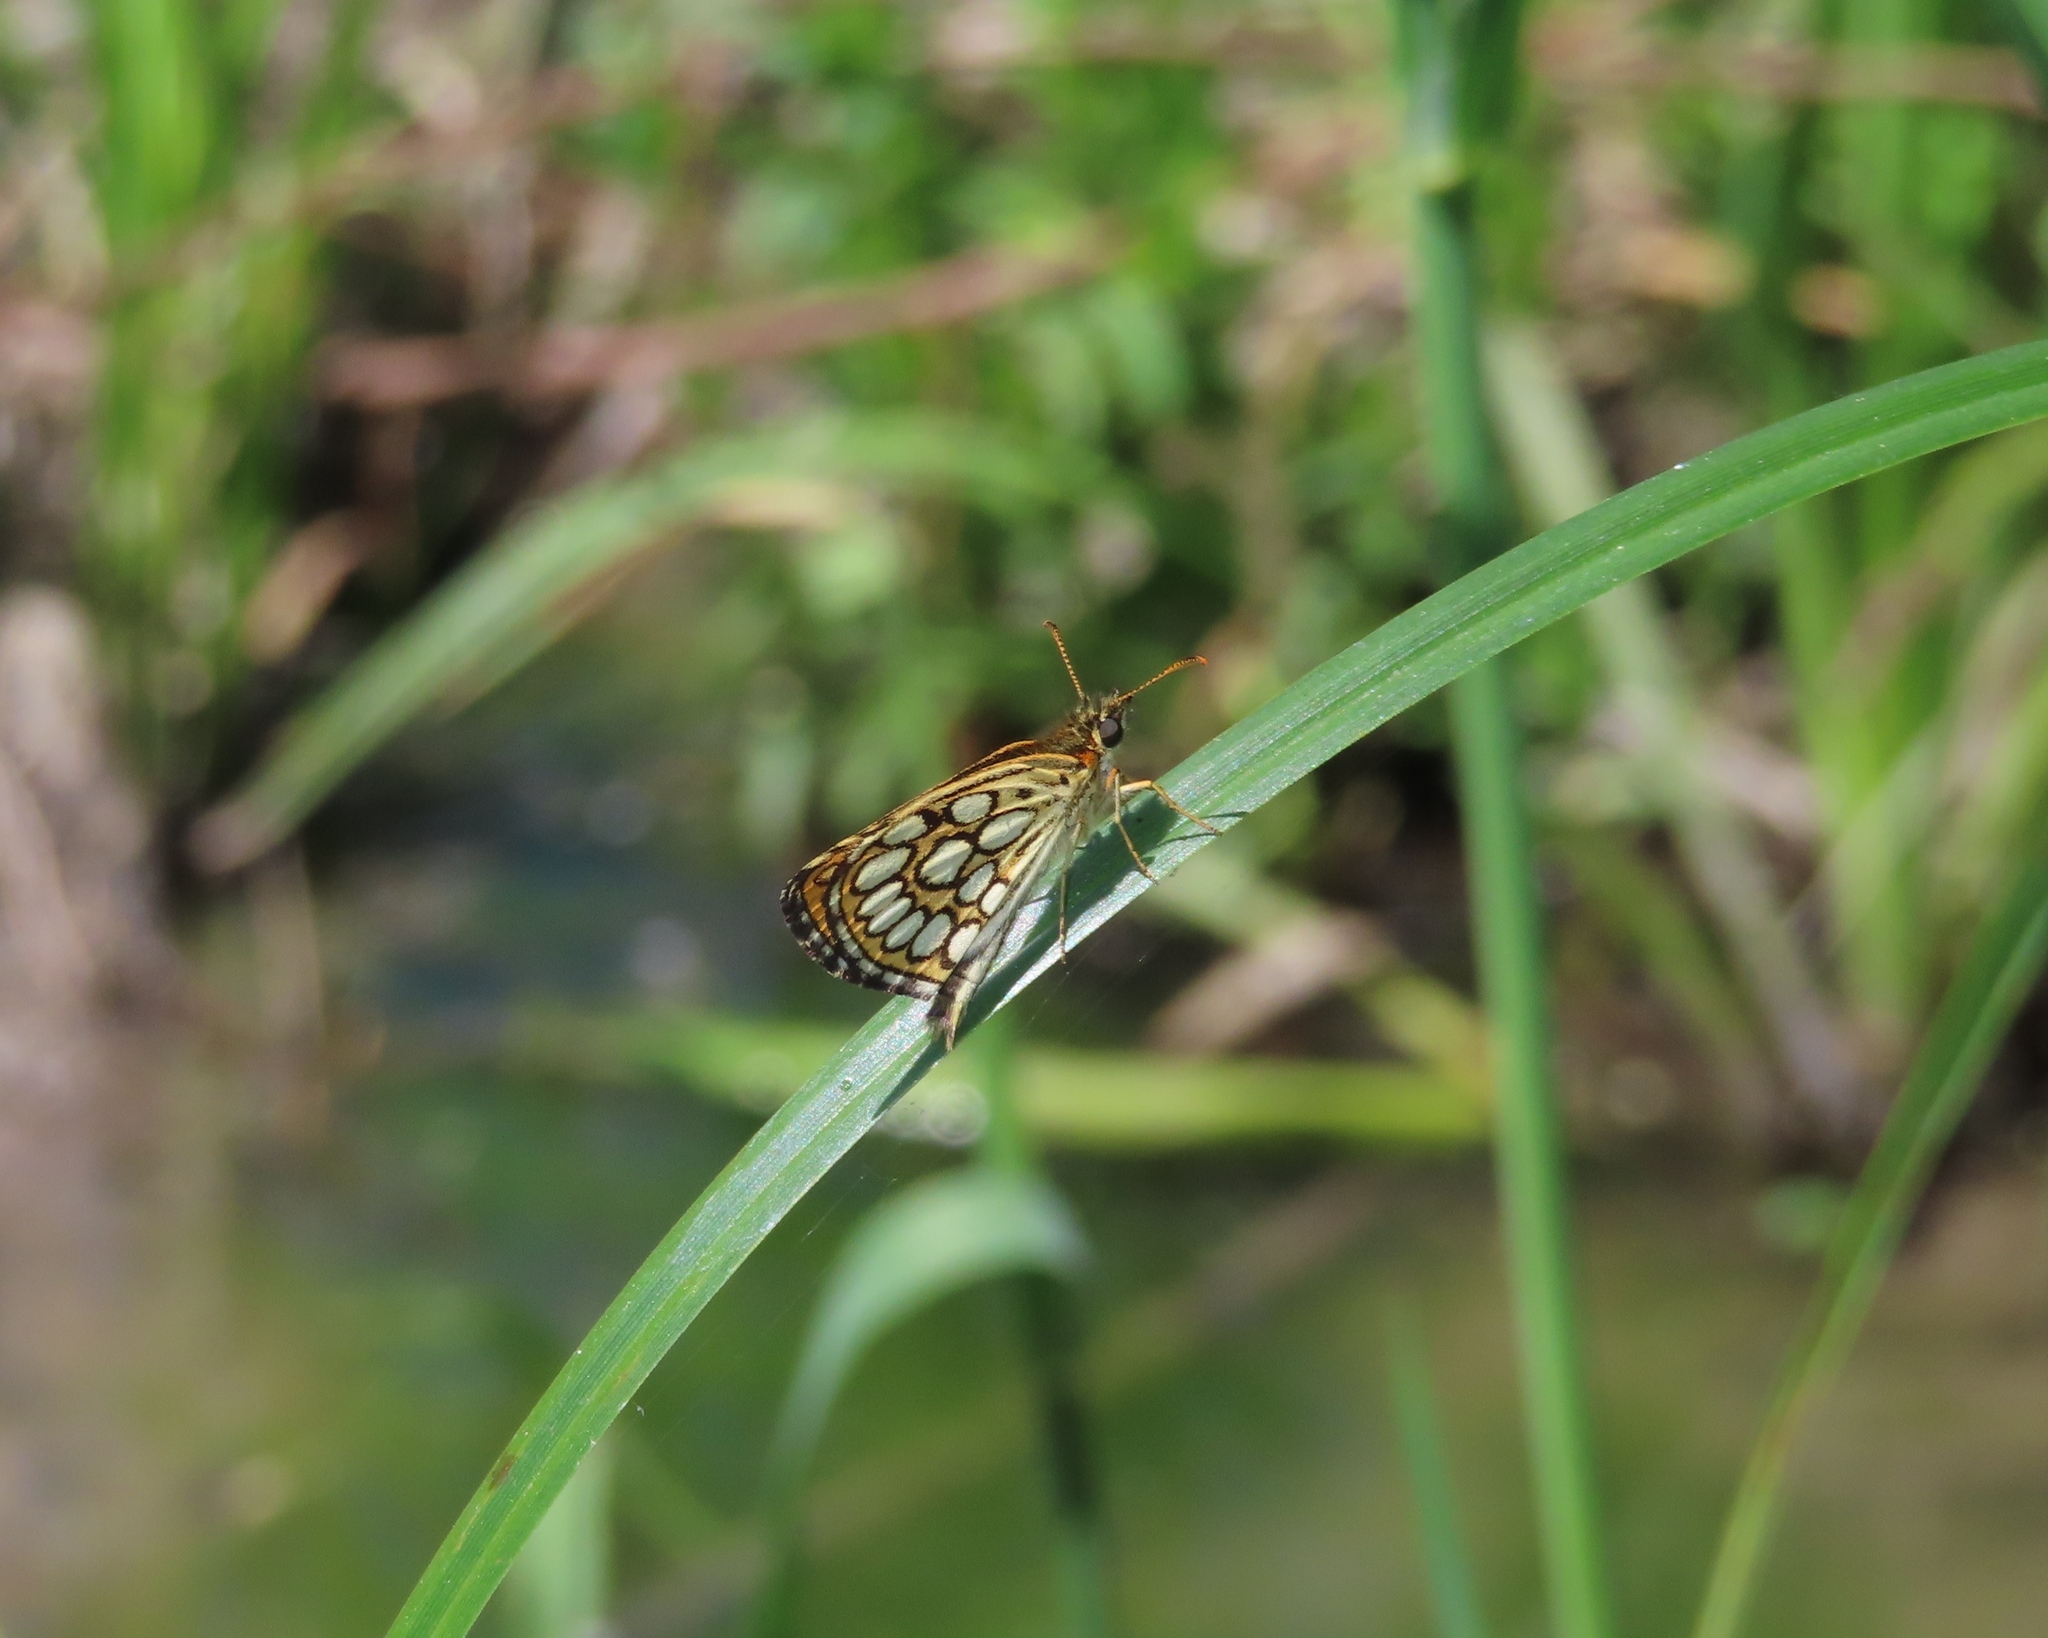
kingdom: Animalia
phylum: Arthropoda
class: Insecta
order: Lepidoptera
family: Hesperiidae
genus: Heteropterus
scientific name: Heteropterus morpheus
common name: Large chequered skipper
